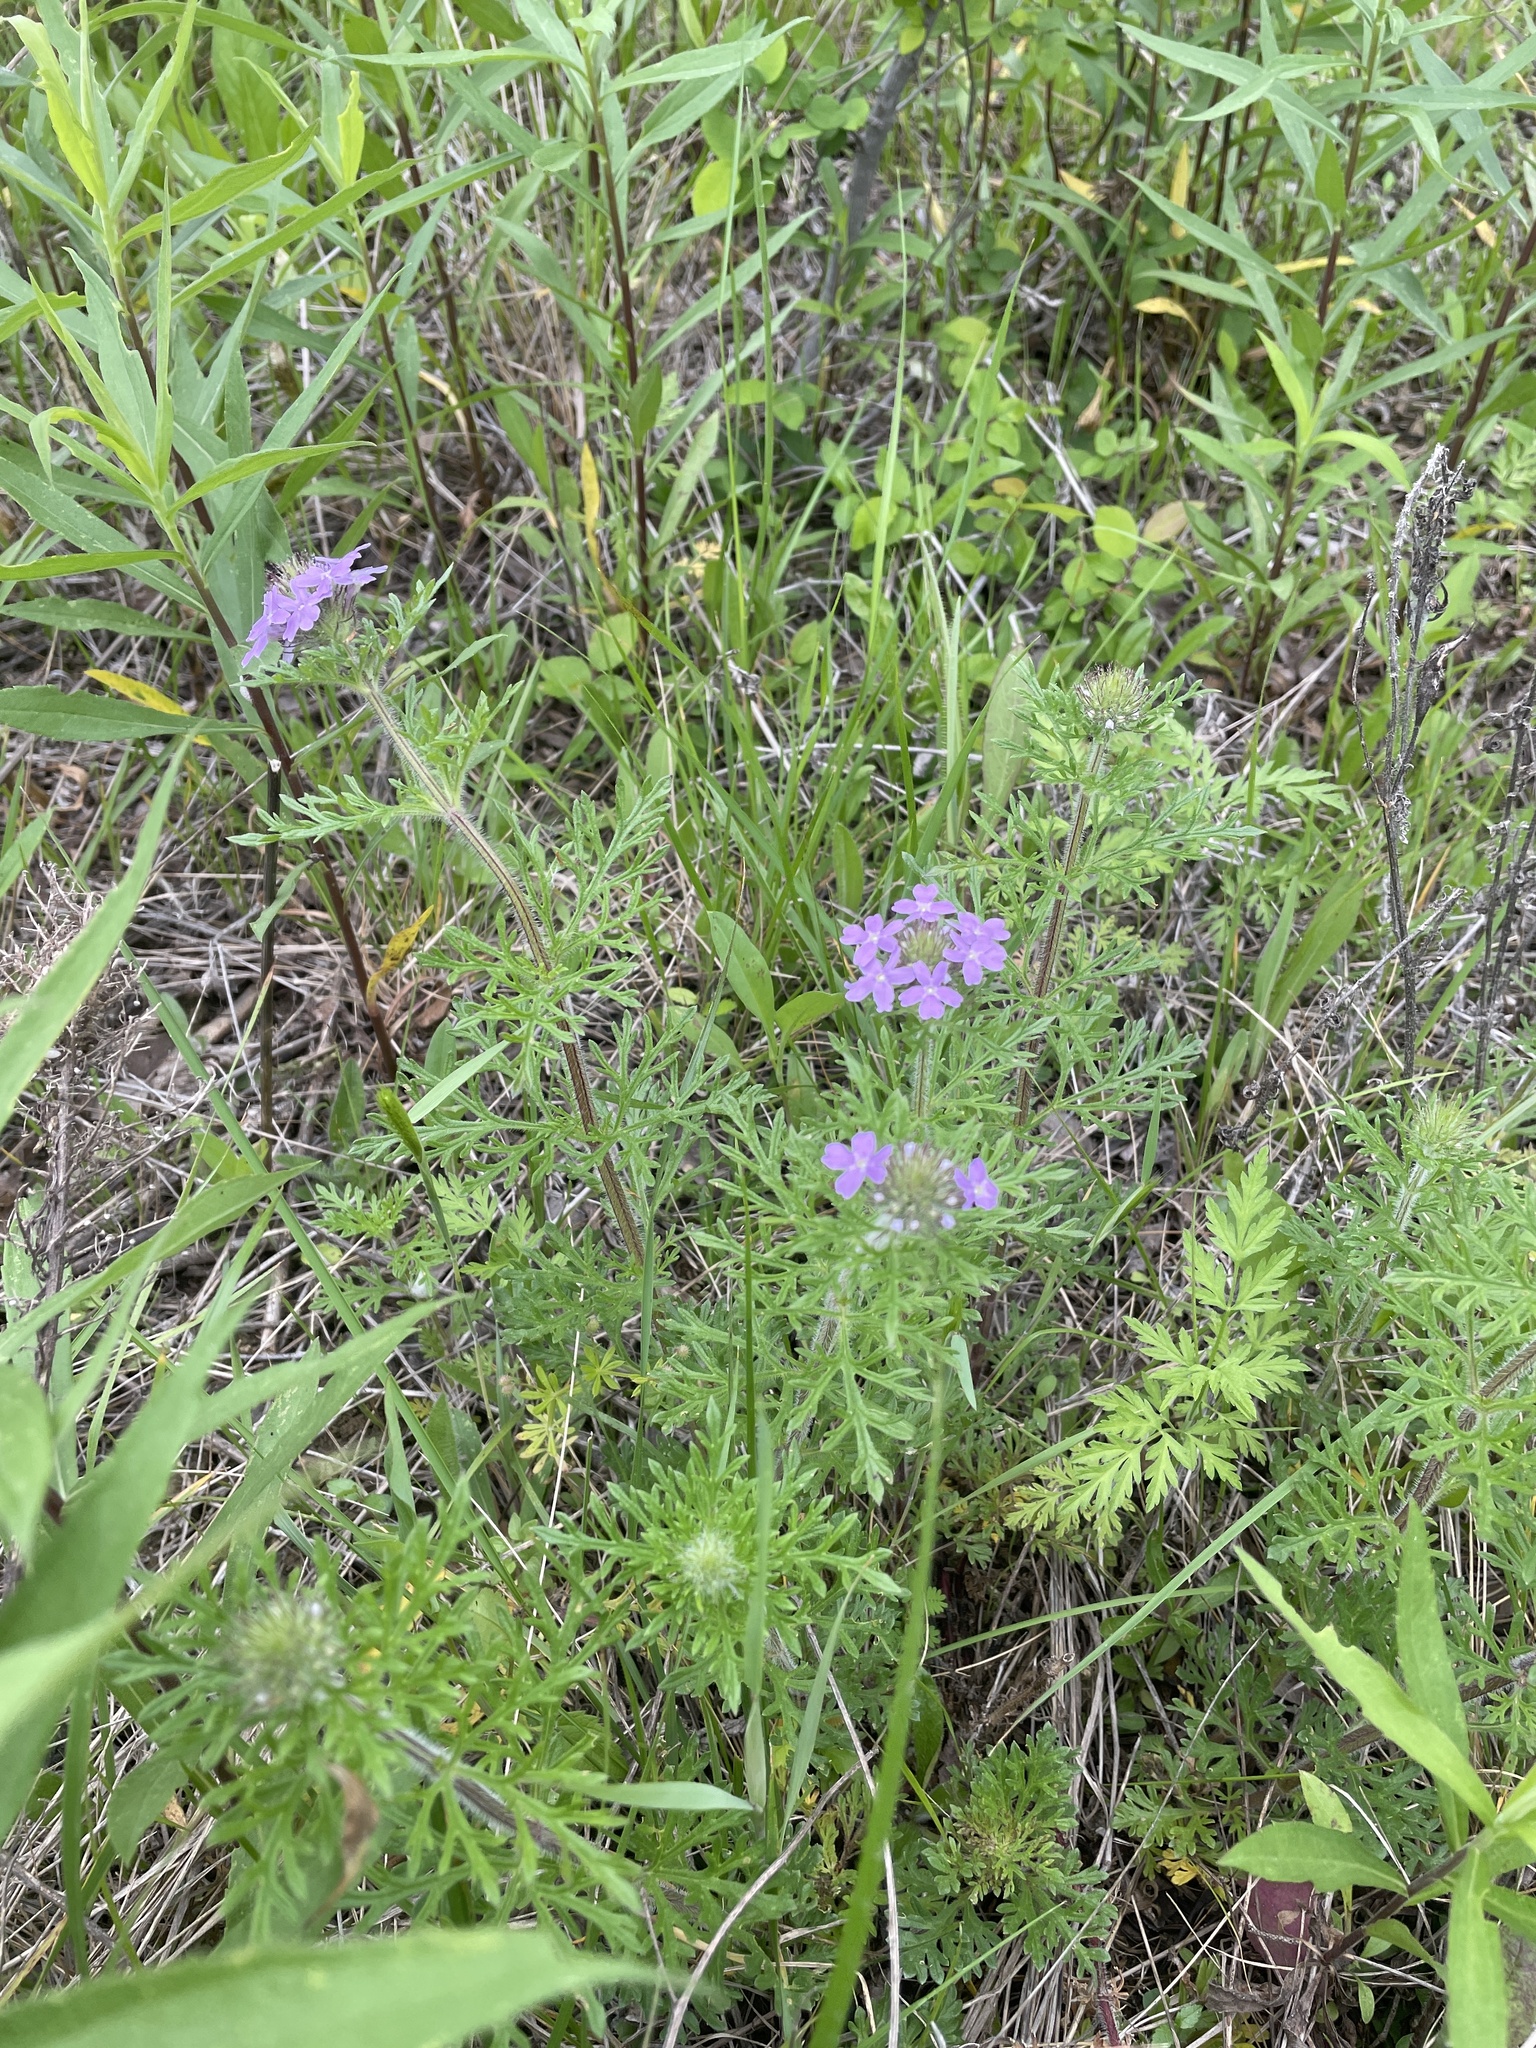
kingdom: Plantae
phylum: Tracheophyta
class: Magnoliopsida
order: Lamiales
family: Verbenaceae
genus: Verbena
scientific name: Verbena bipinnatifida
